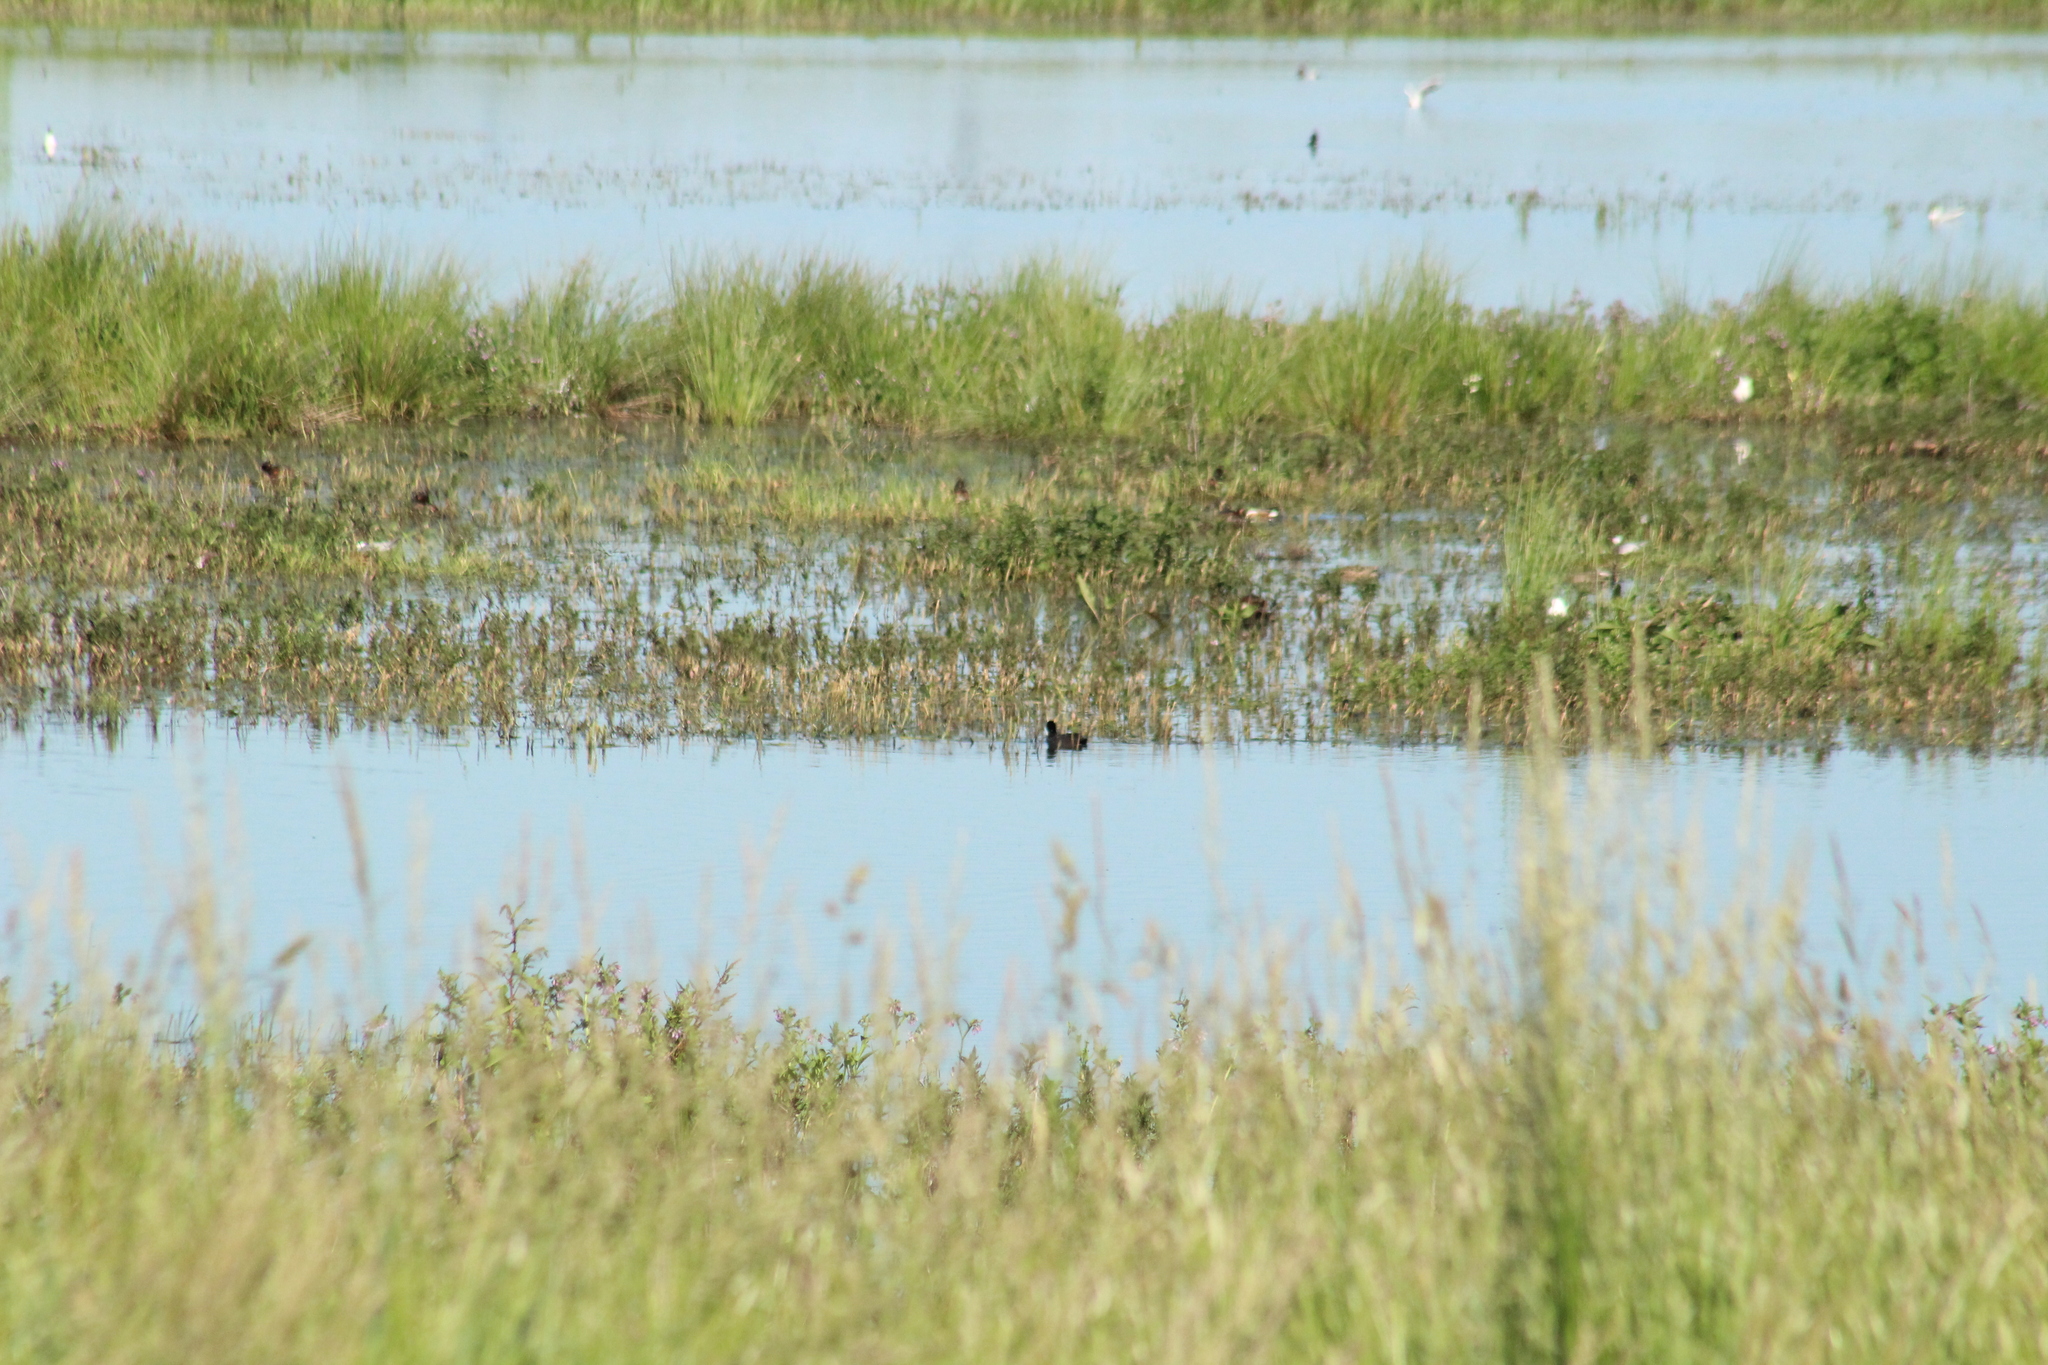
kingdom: Animalia
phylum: Chordata
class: Aves
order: Gruiformes
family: Rallidae
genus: Fulica
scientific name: Fulica atra
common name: Eurasian coot
